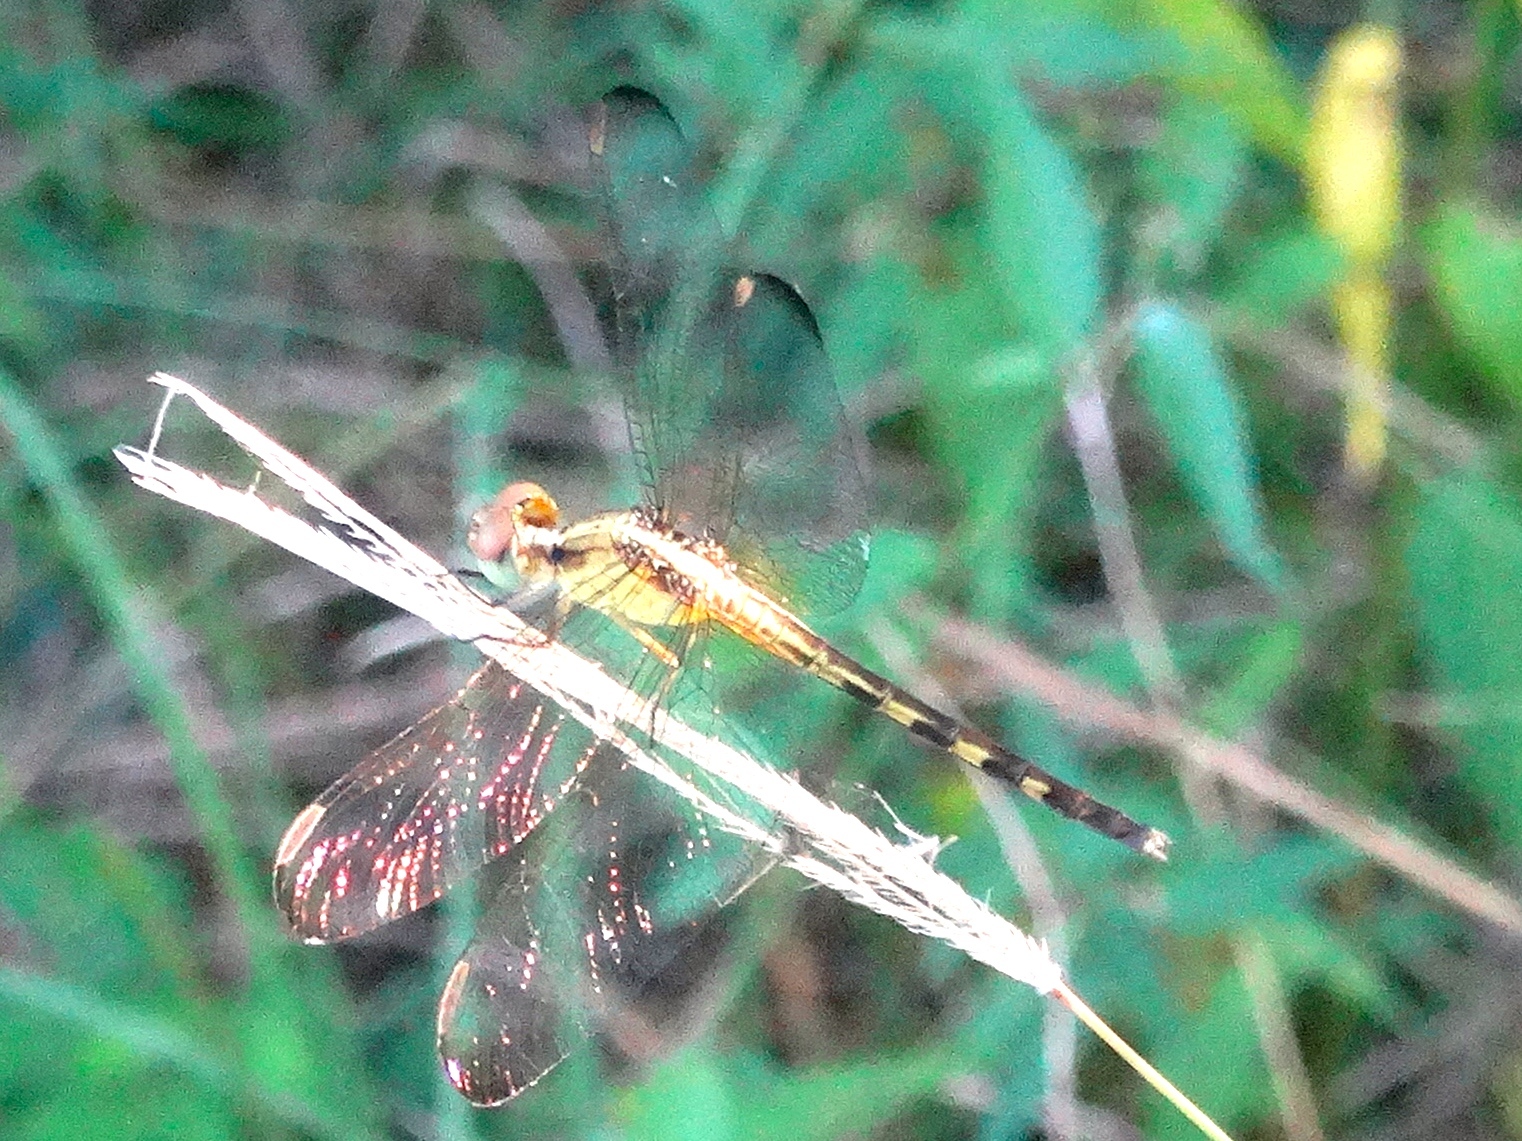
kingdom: Animalia
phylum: Arthropoda
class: Insecta
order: Odonata
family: Libellulidae
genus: Erythrodiplax
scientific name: Erythrodiplax funerea
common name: Black-winged dragonlet
